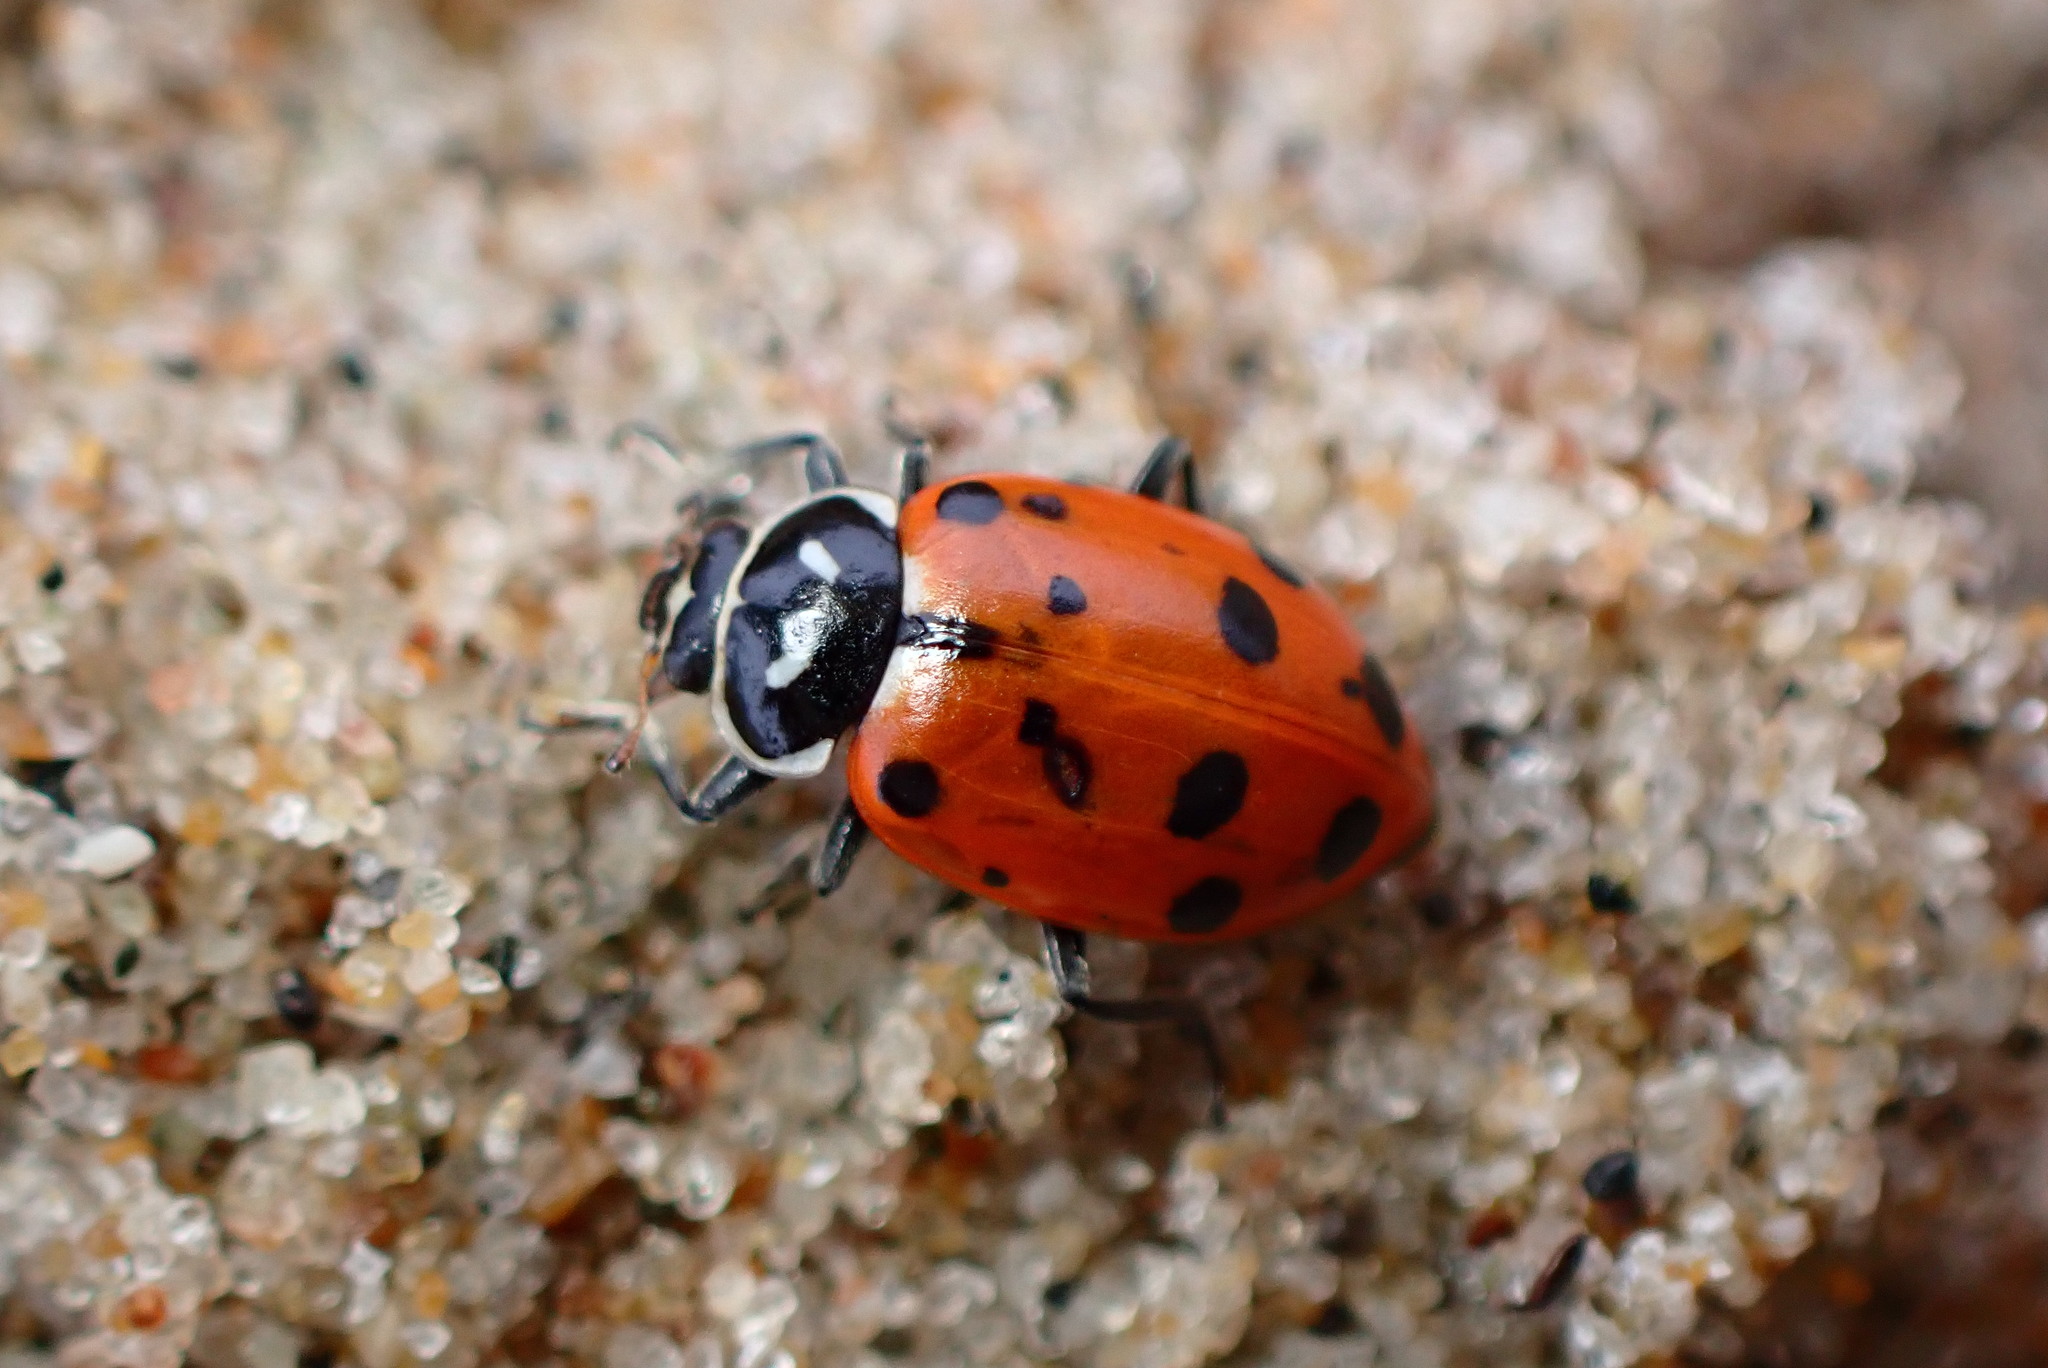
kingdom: Animalia
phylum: Arthropoda
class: Insecta
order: Coleoptera
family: Coccinellidae
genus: Hippodamia
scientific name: Hippodamia convergens
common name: Convergent lady beetle
